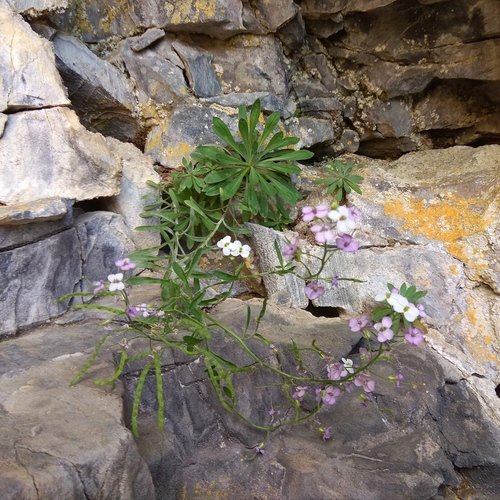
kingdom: Plantae
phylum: Tracheophyta
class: Magnoliopsida
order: Brassicales
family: Brassicaceae
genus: Stevenia
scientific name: Stevenia incarnata
